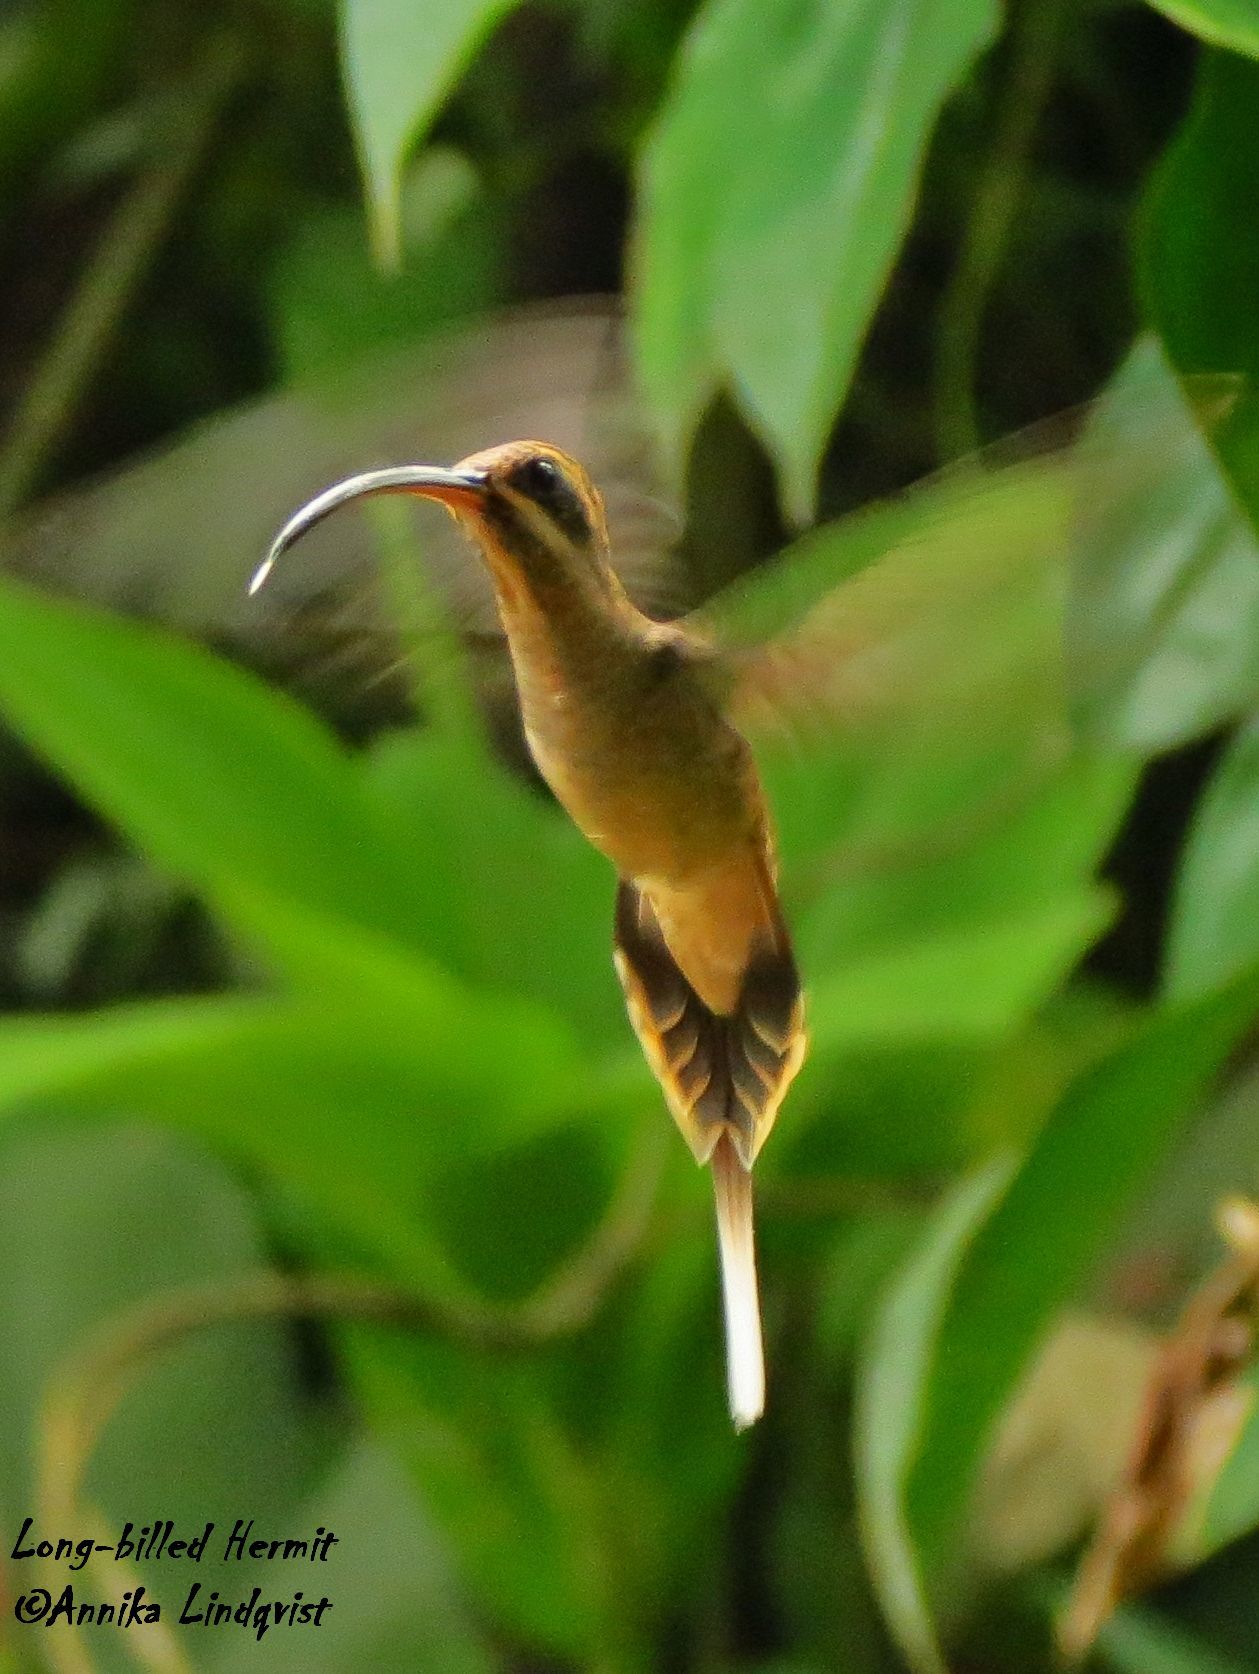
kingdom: Animalia
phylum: Chordata
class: Aves
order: Apodiformes
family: Trochilidae
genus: Phaethornis
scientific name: Phaethornis longirostris
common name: Long-billed hermit
